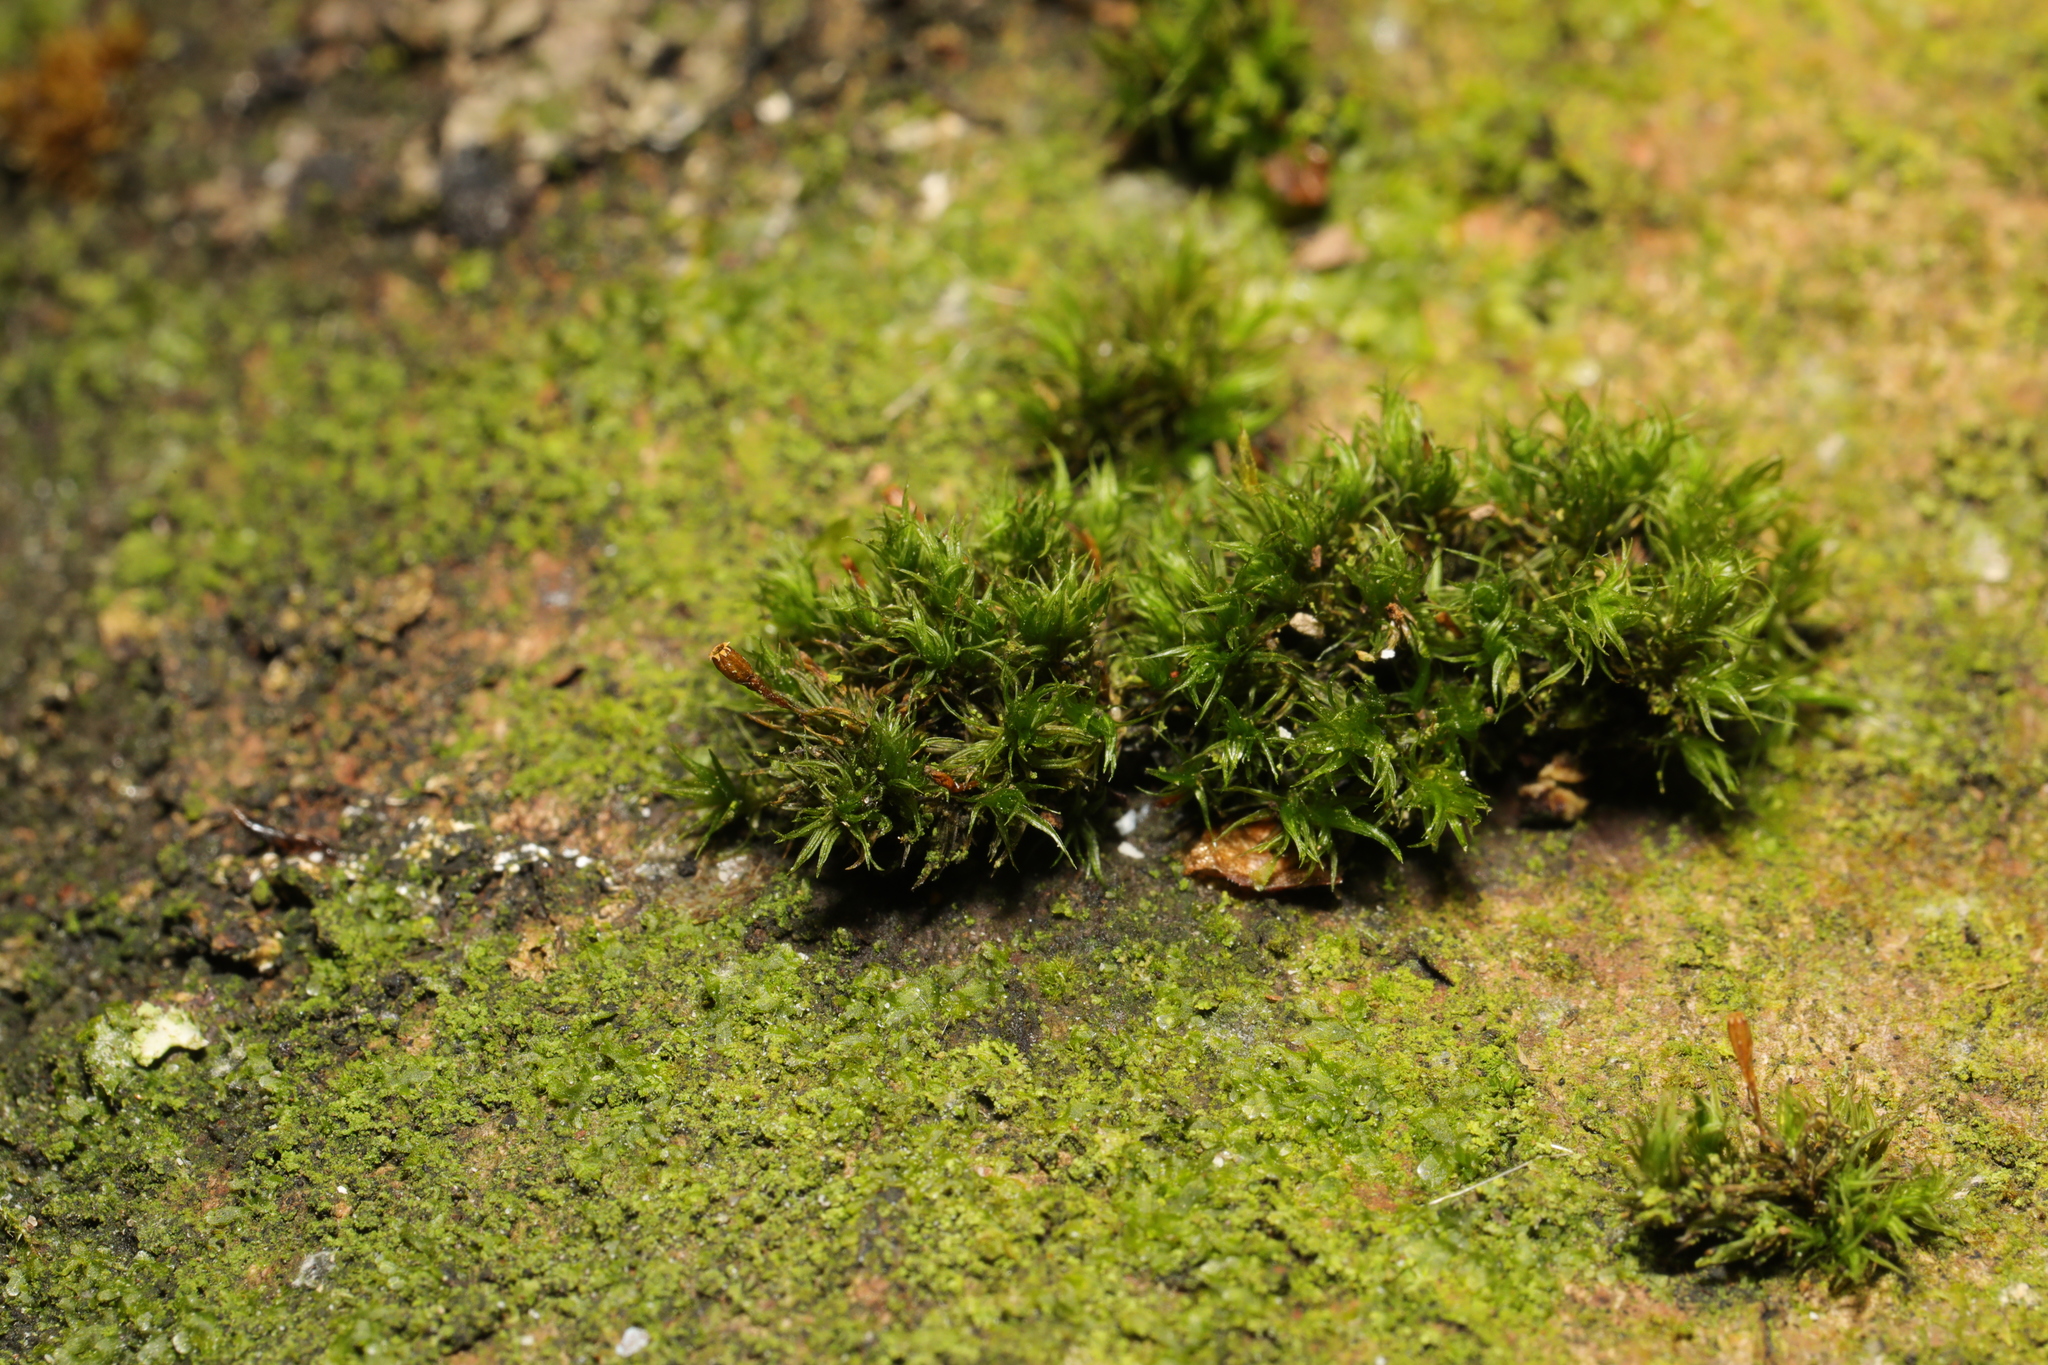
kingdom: Plantae
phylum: Bryophyta
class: Bryopsida
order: Orthotrichales
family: Orthotrichaceae
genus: Lewinskya
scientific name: Lewinskya affinis
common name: Wood bristle-moss
